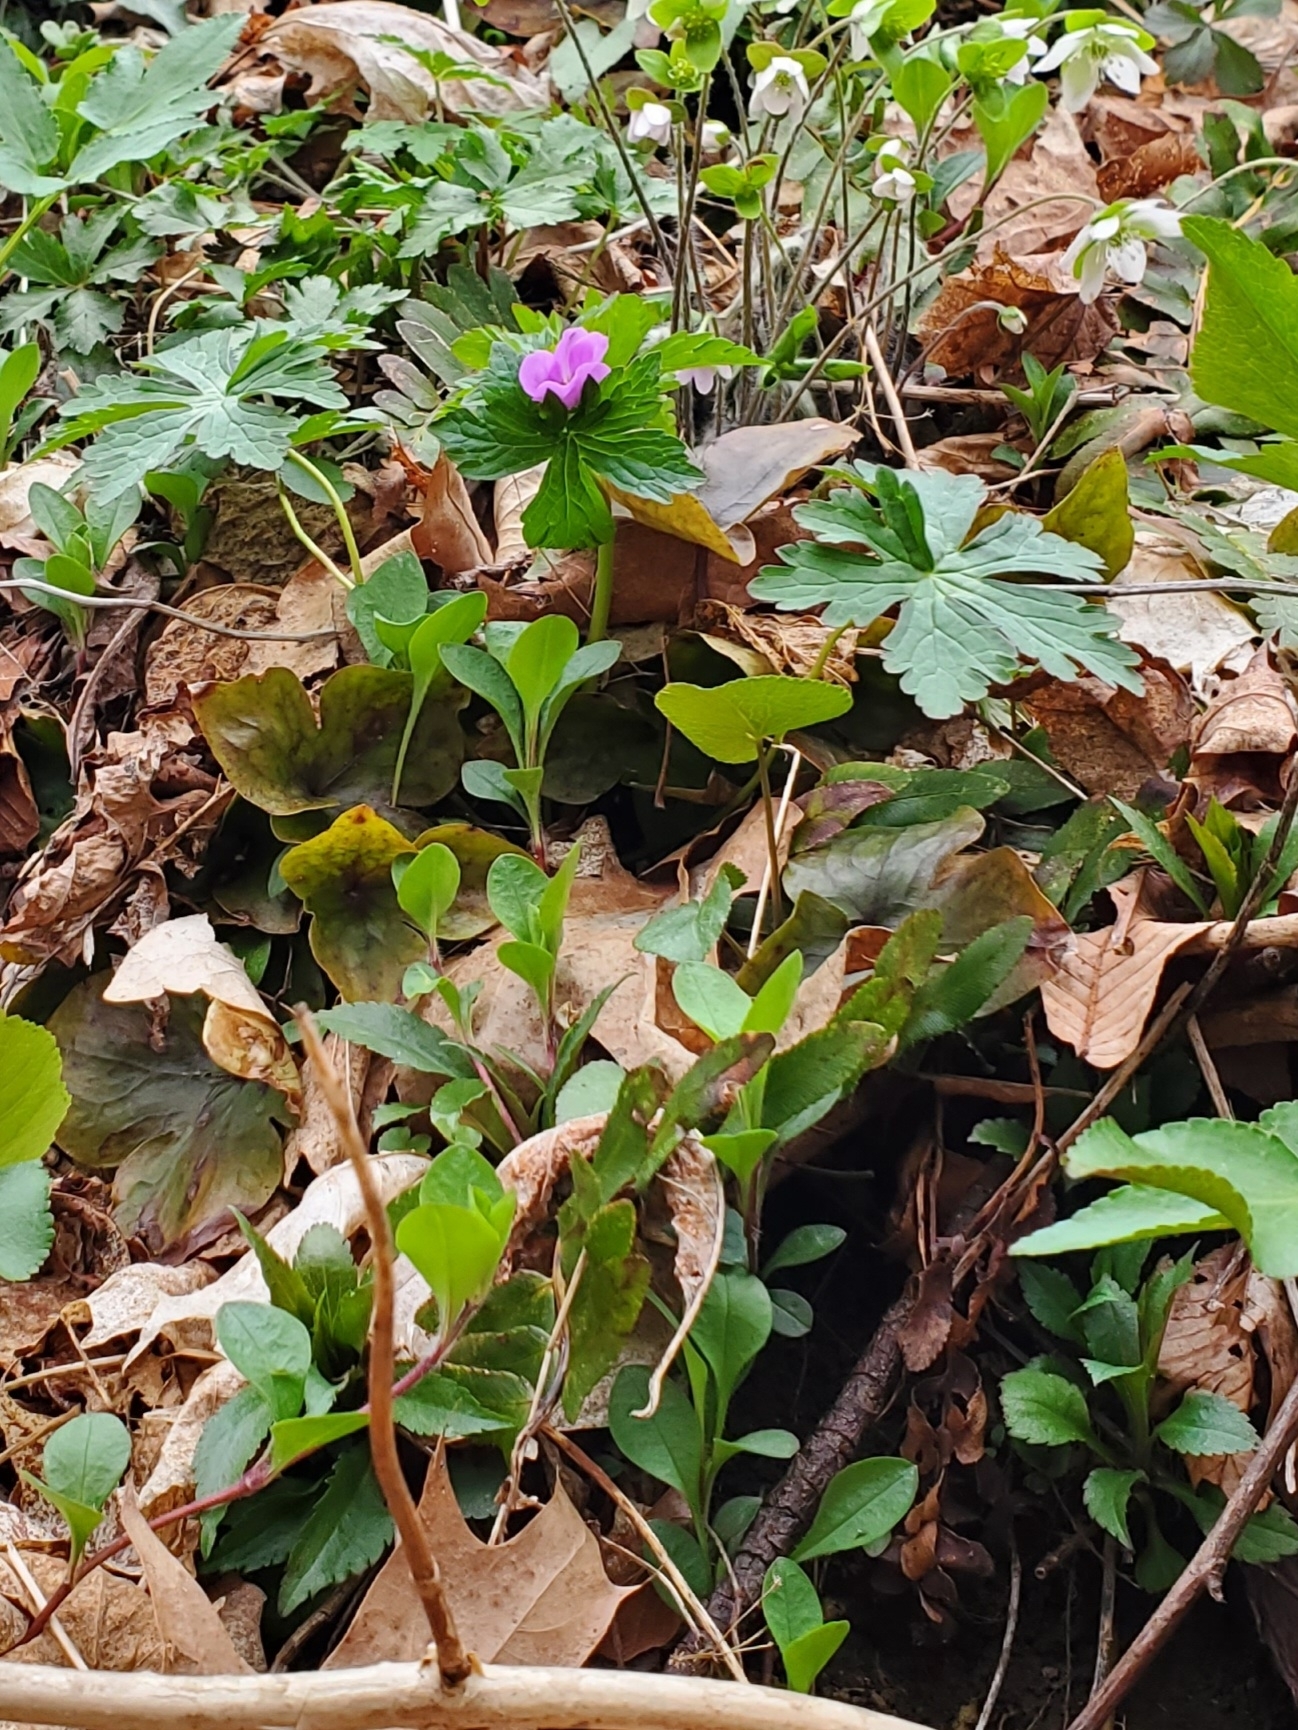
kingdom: Plantae
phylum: Tracheophyta
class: Magnoliopsida
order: Geraniales
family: Geraniaceae
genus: Geranium
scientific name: Geranium maculatum
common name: Spotted geranium
